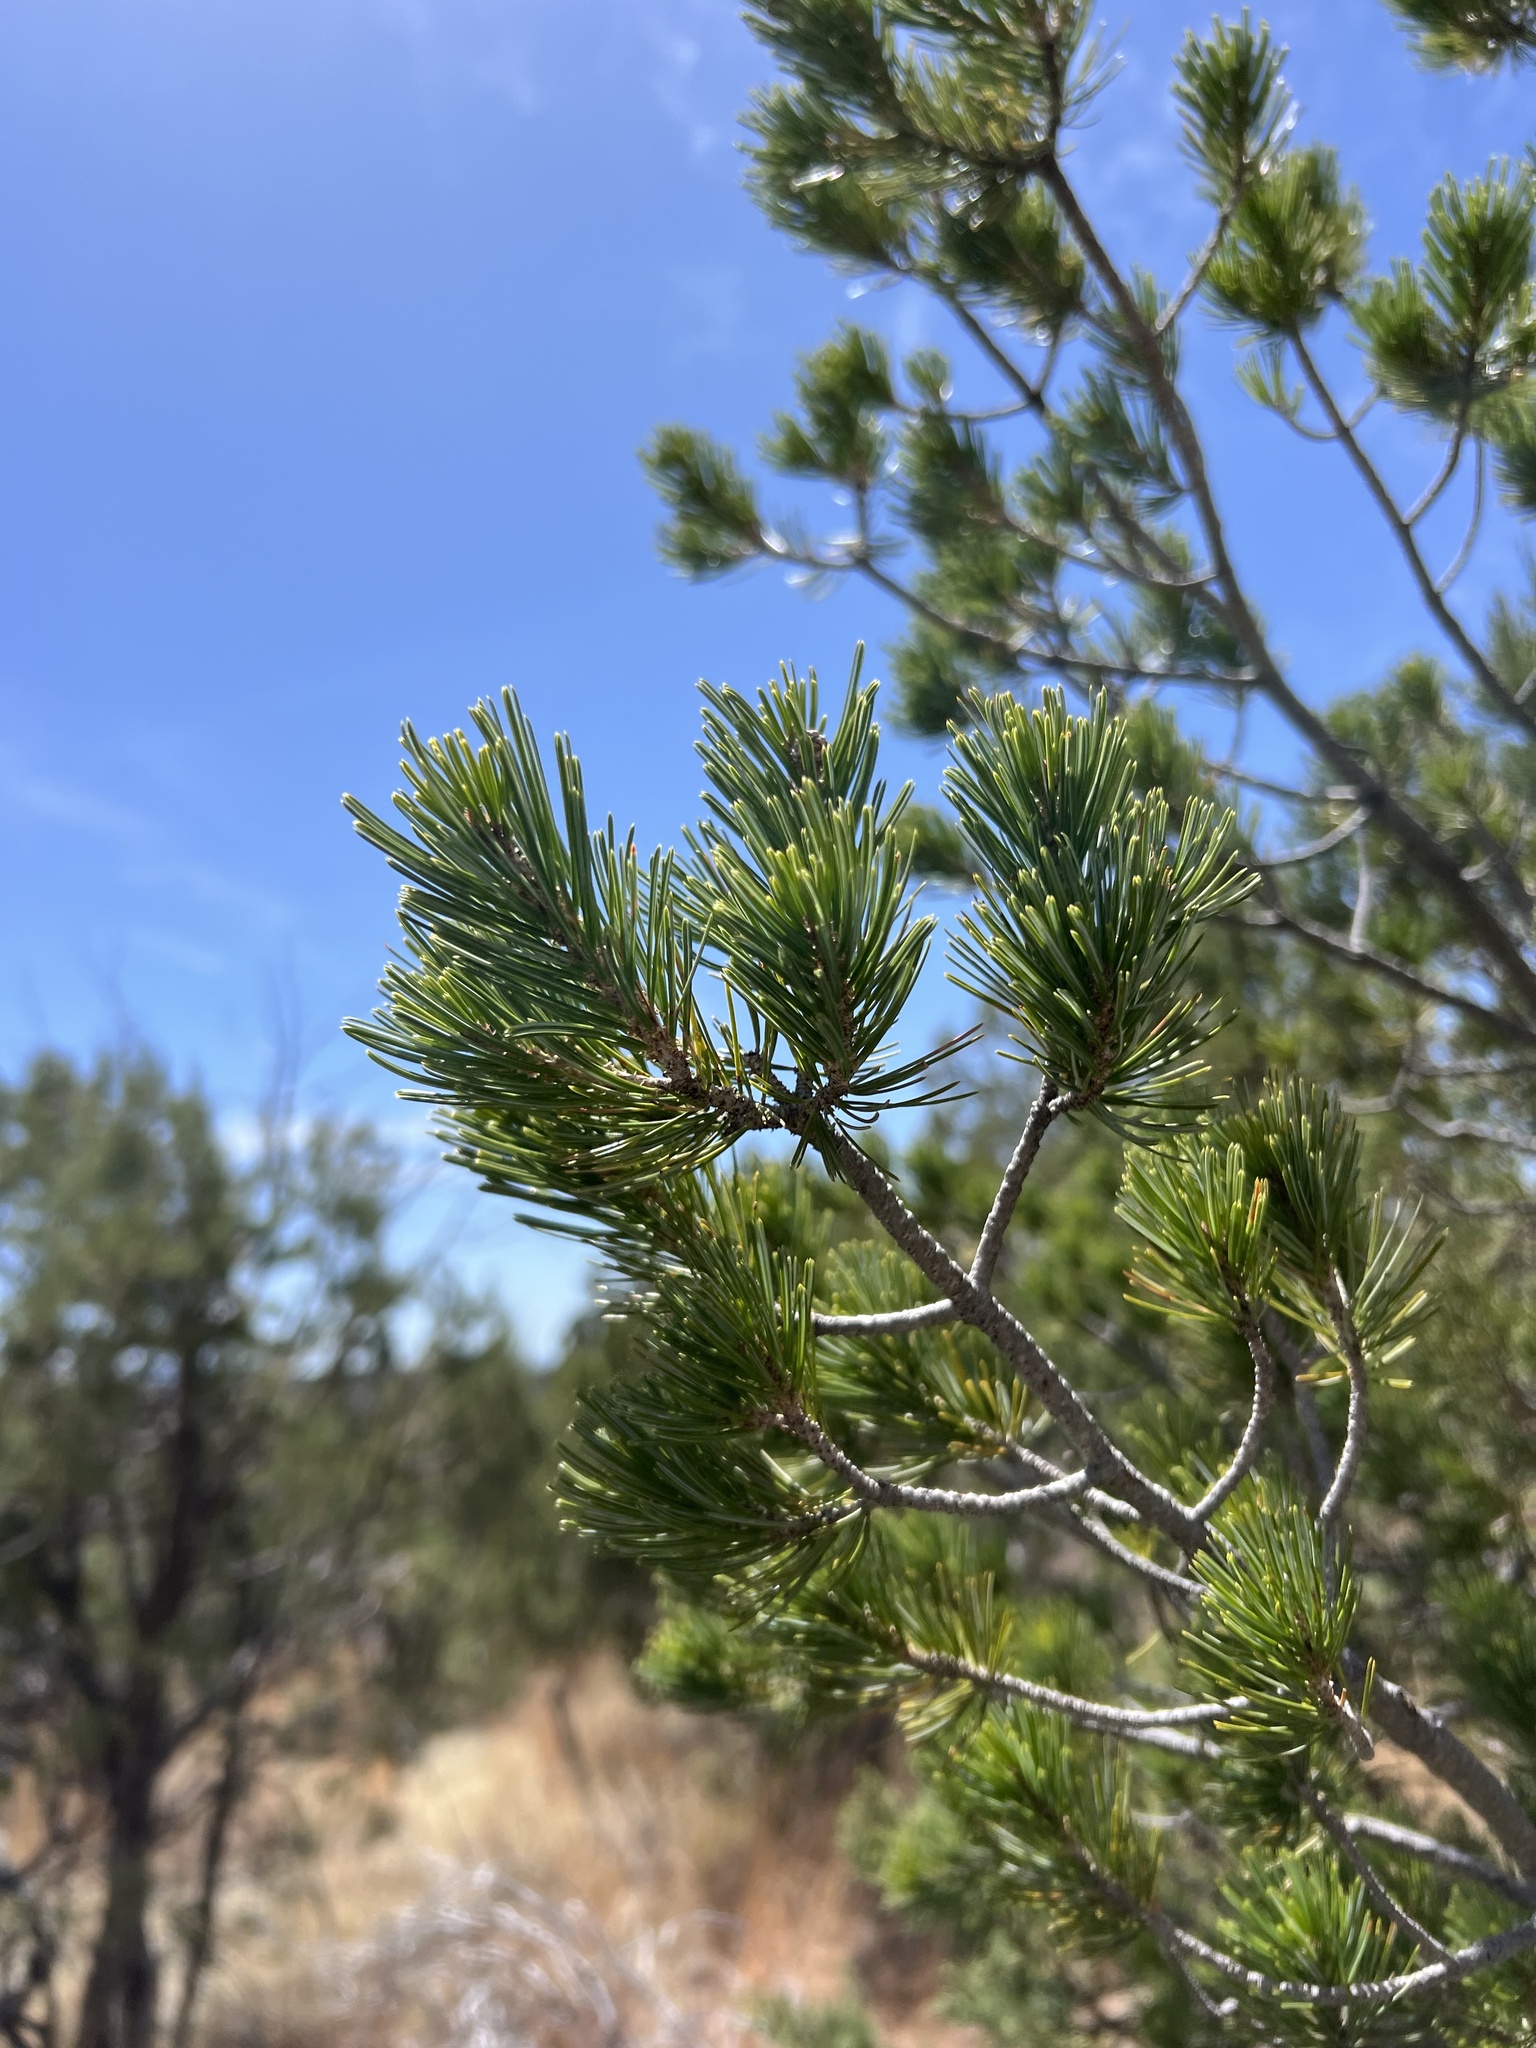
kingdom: Plantae
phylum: Tracheophyta
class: Pinopsida
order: Pinales
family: Pinaceae
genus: Pinus
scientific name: Pinus discolor
